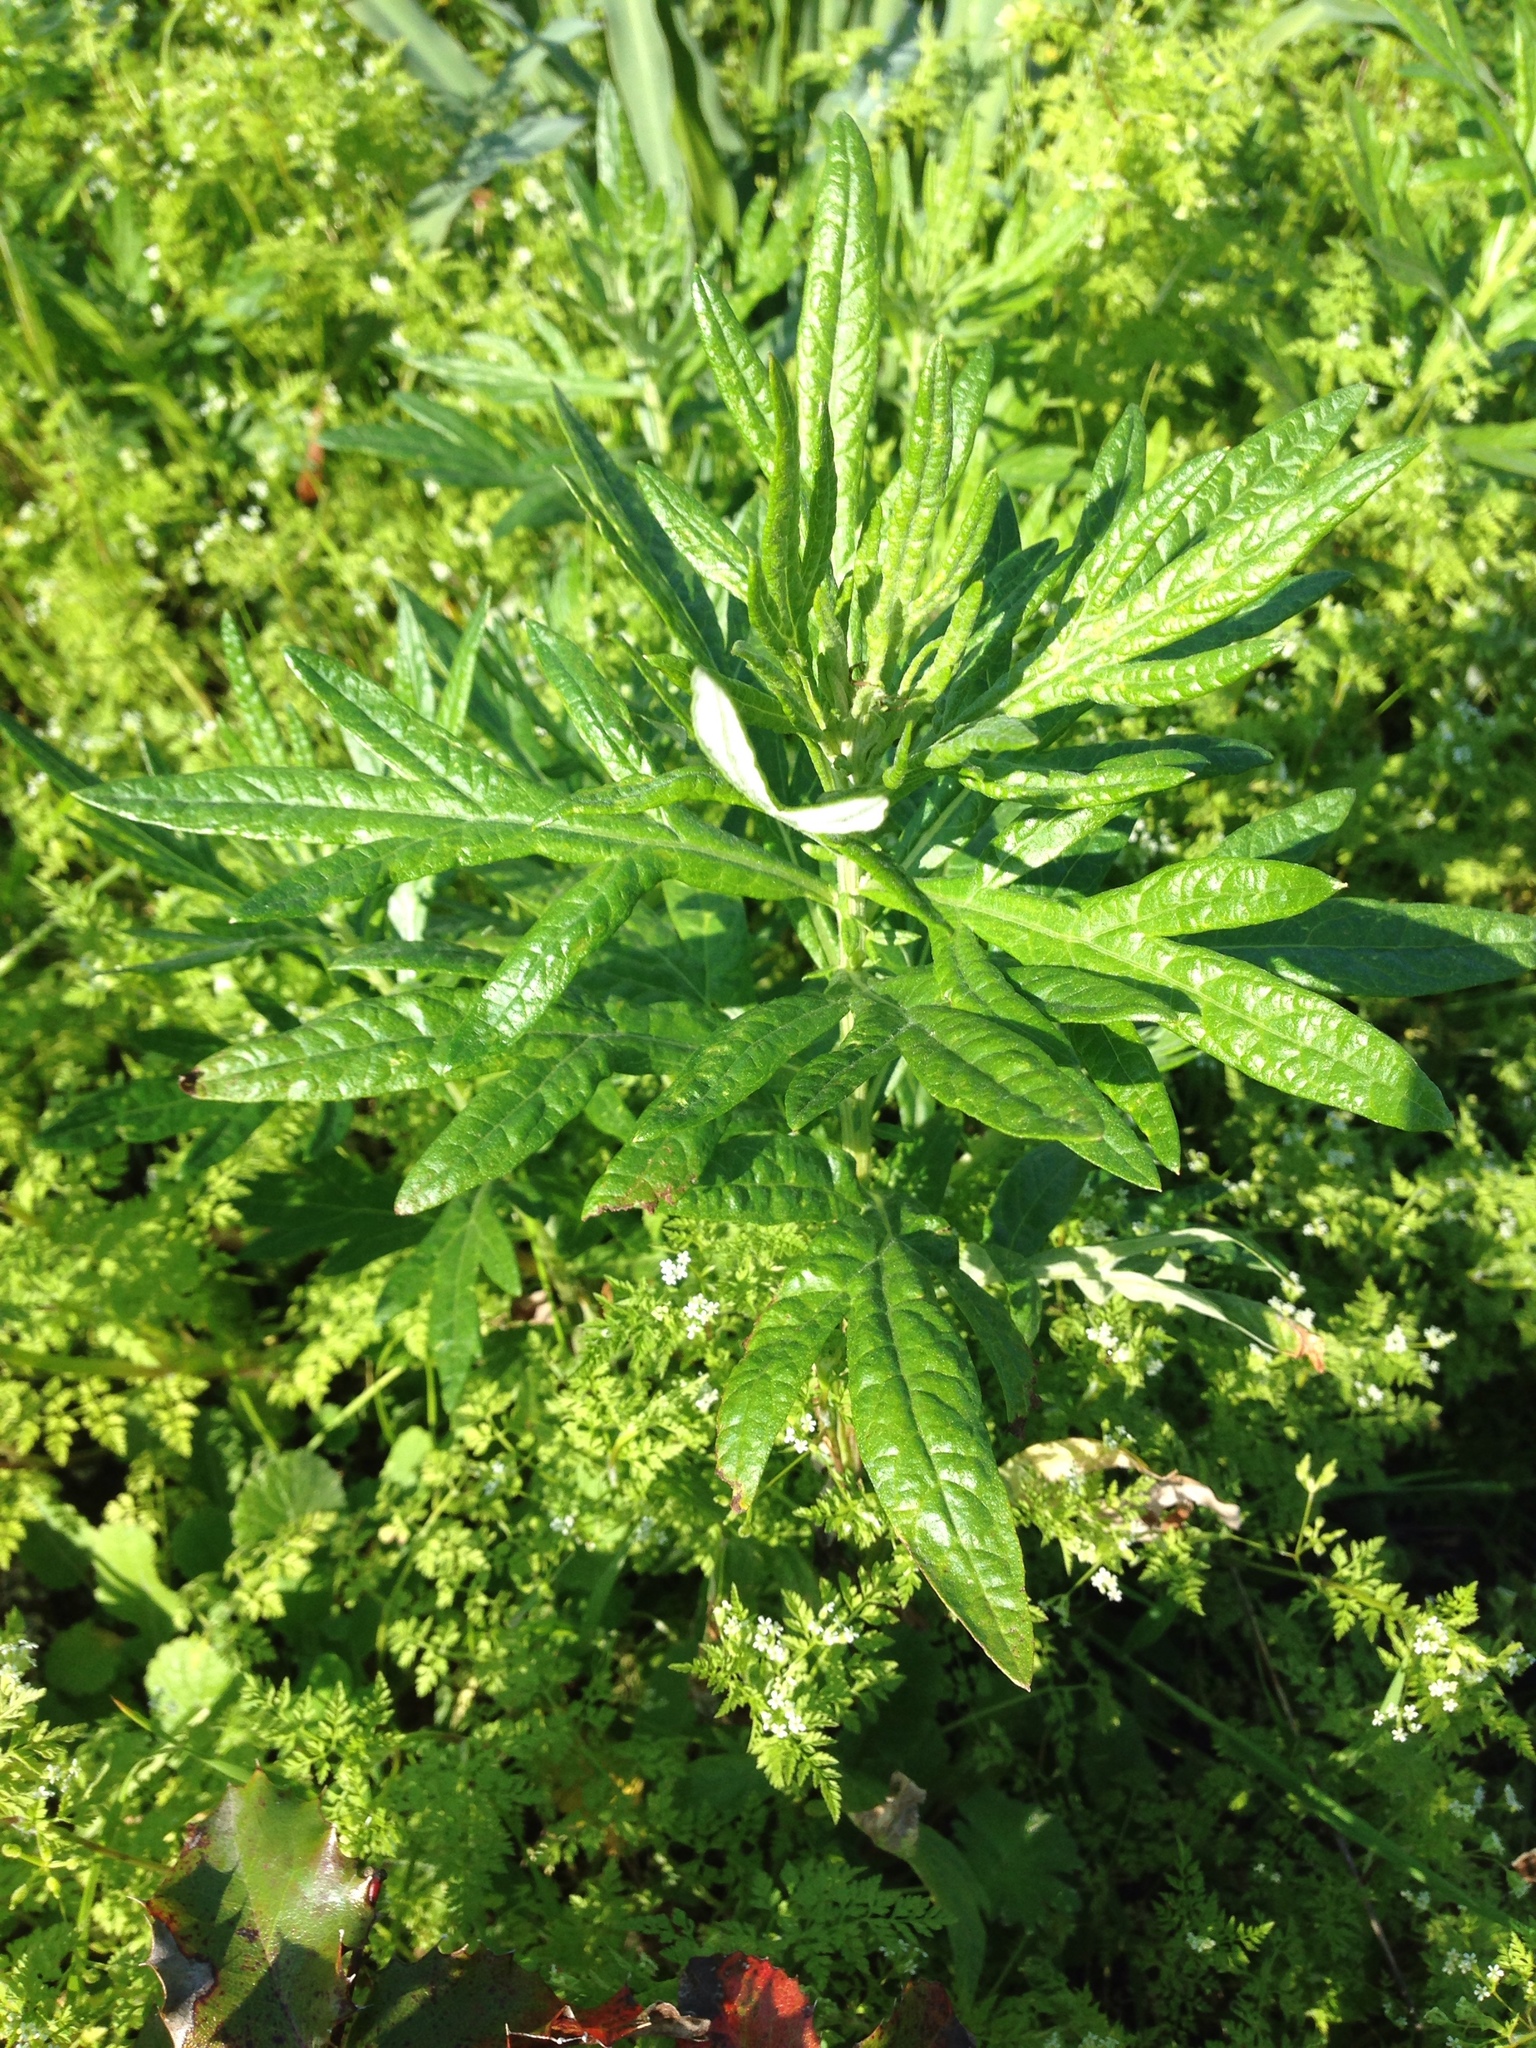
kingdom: Plantae
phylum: Tracheophyta
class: Magnoliopsida
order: Asterales
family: Asteraceae
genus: Artemisia
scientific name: Artemisia douglasiana
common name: Northwest mugwort
